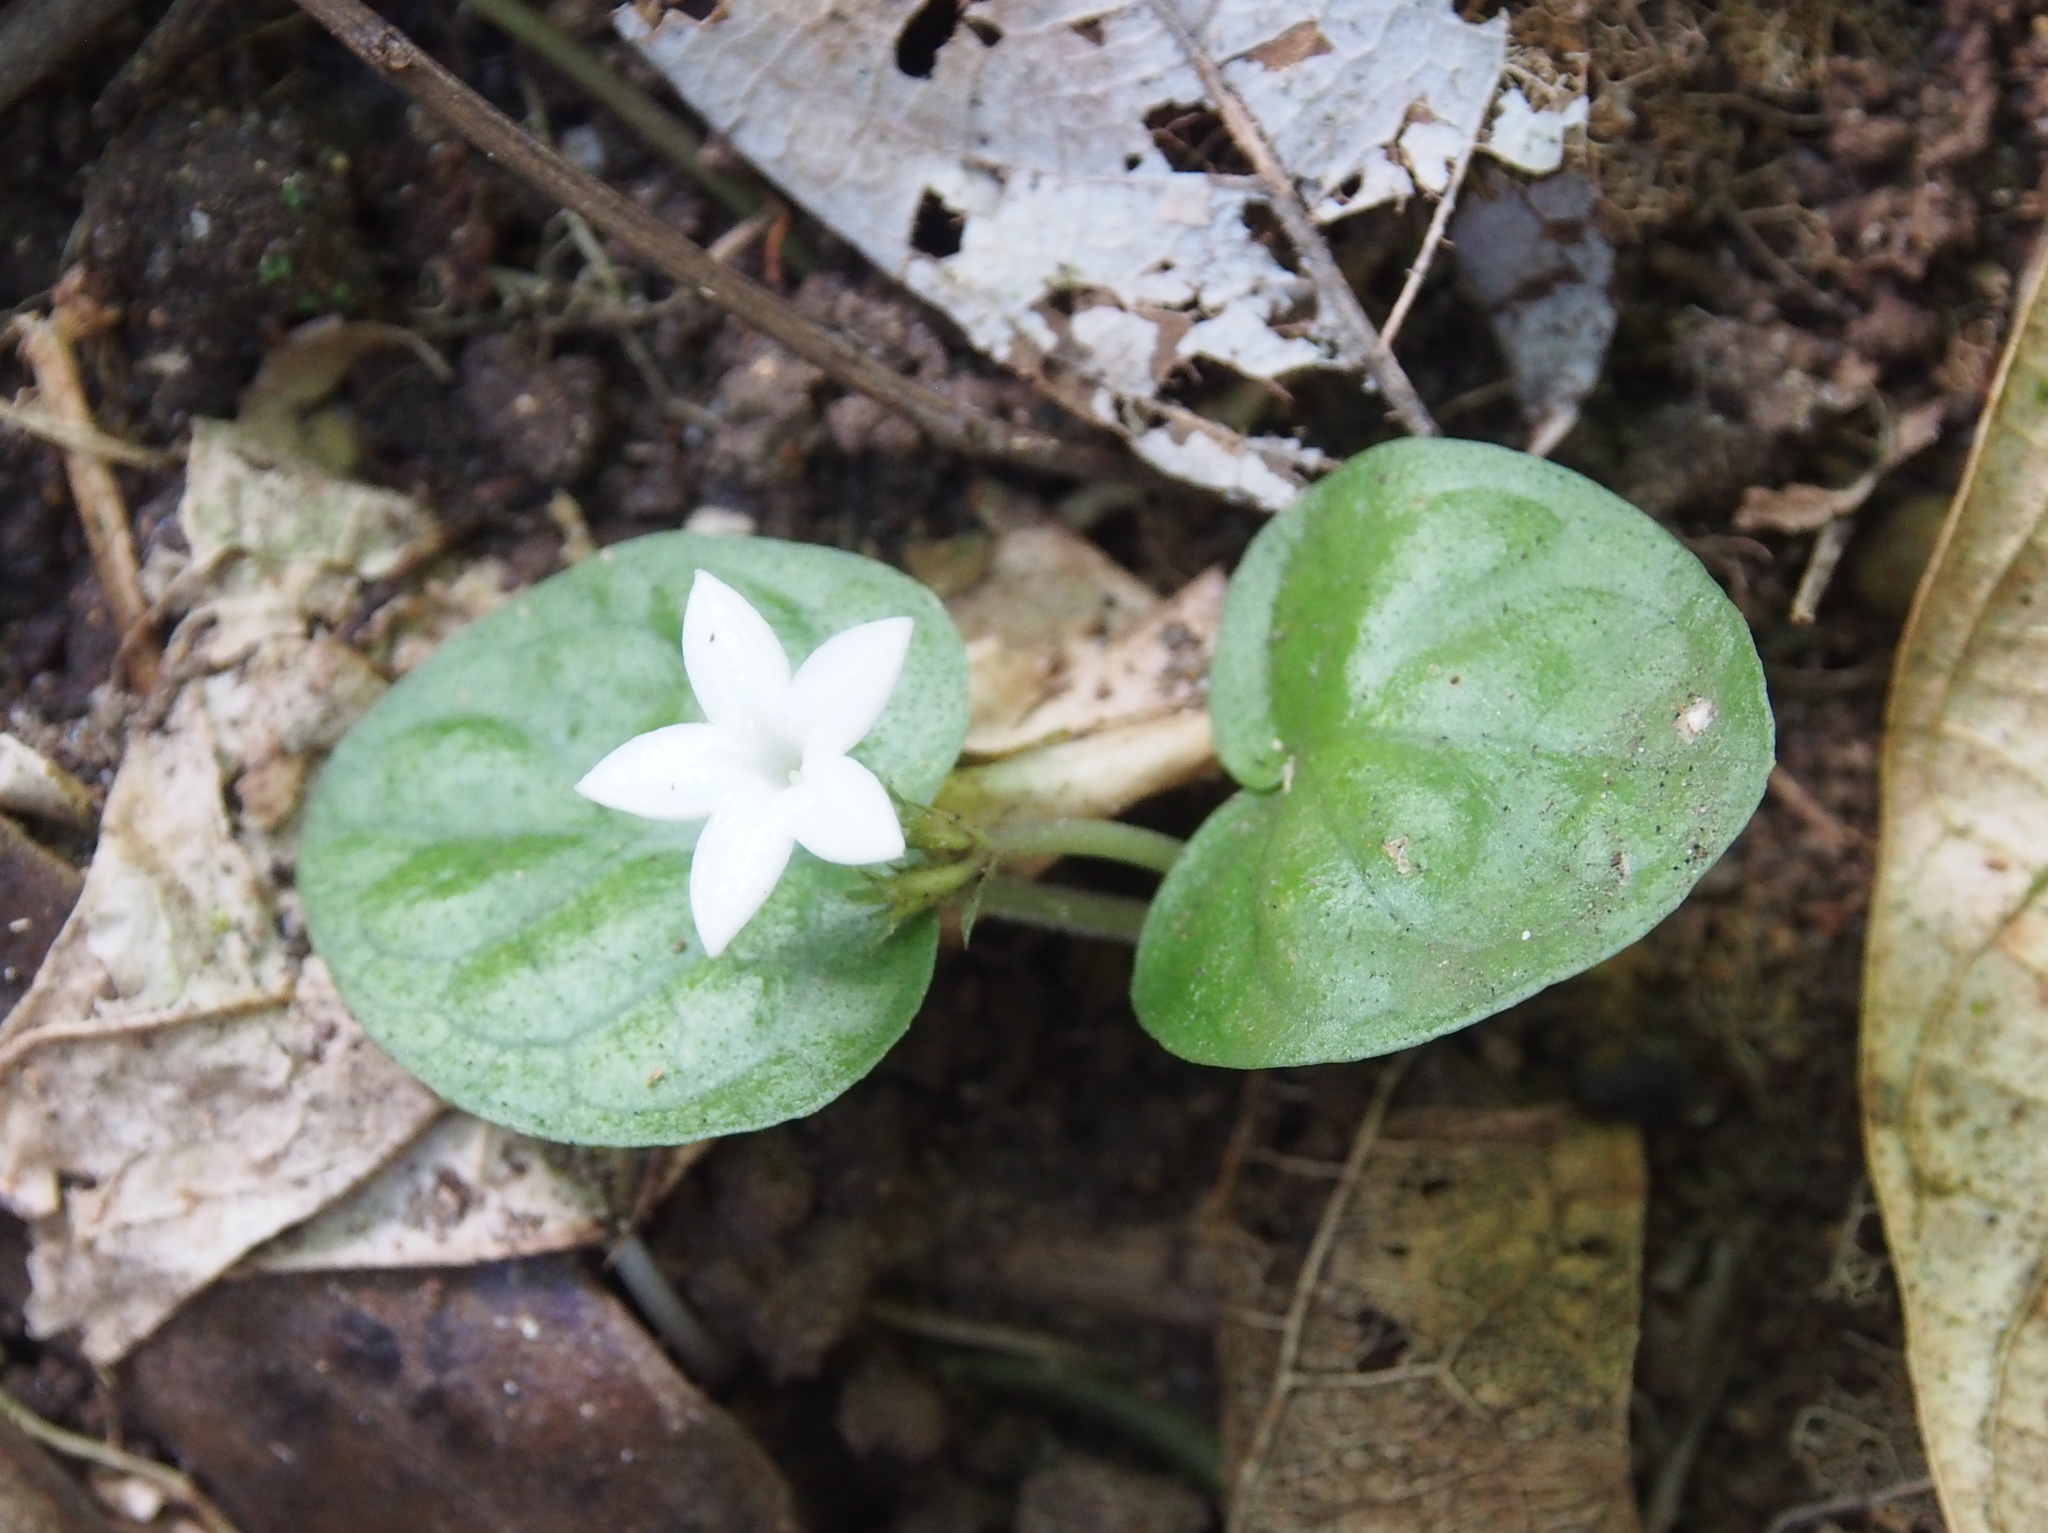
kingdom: Plantae
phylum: Tracheophyta
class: Magnoliopsida
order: Gentianales
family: Rubiaceae
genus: Palicourea
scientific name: Palicourea tomentosa
